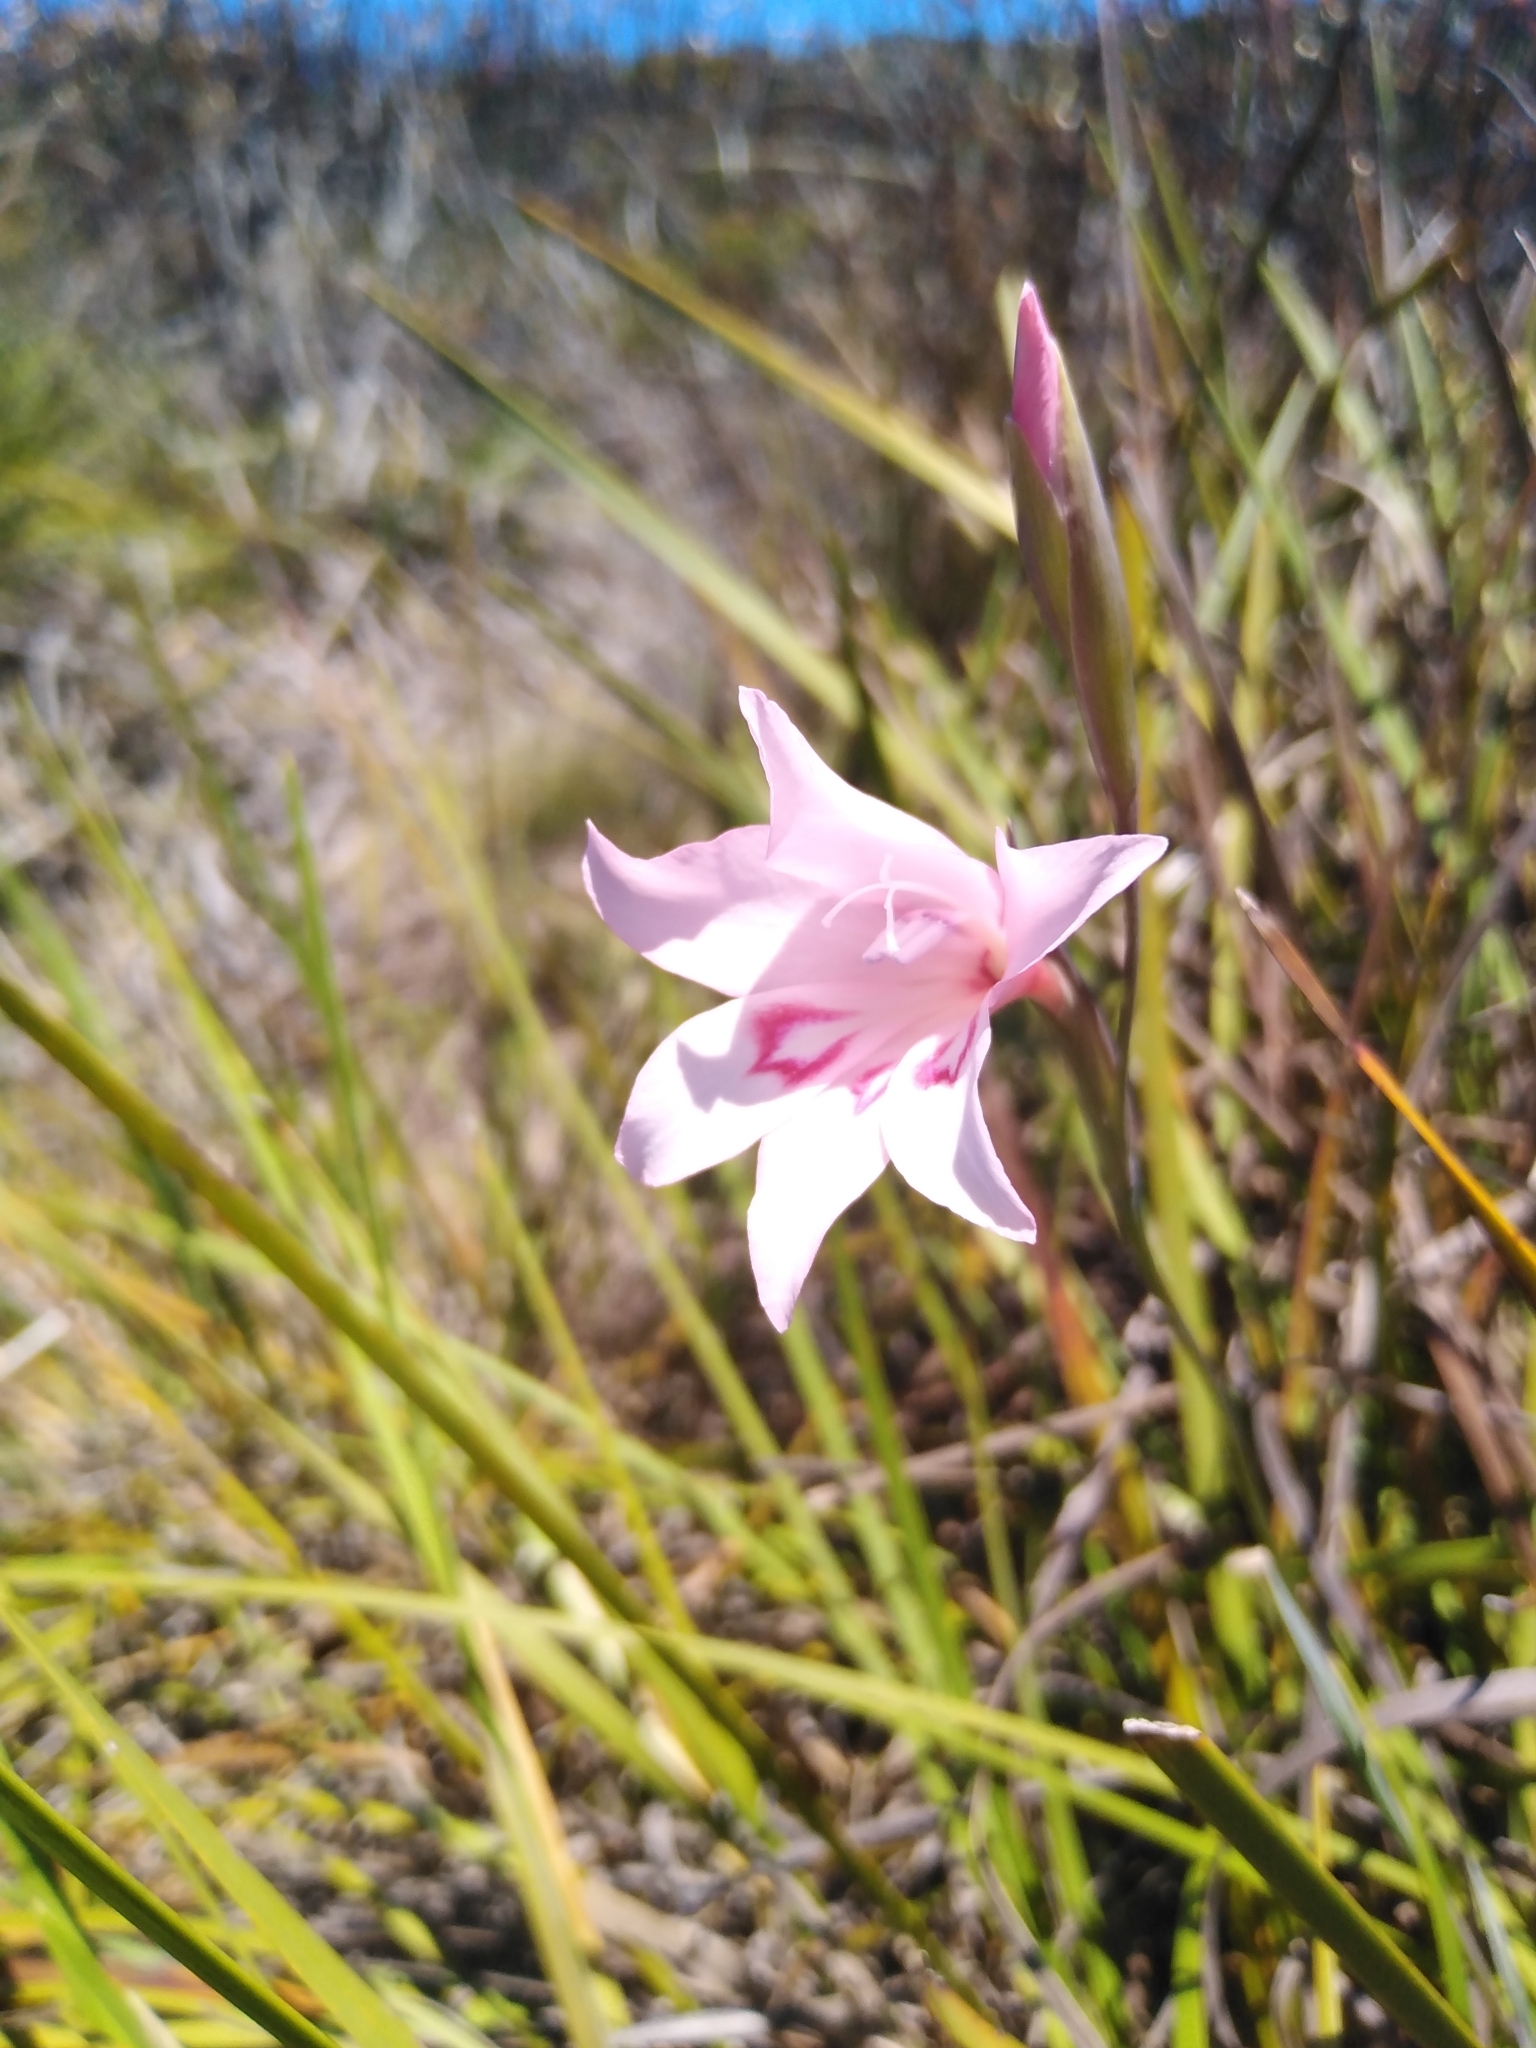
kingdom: Plantae
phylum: Tracheophyta
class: Liliopsida
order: Asparagales
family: Iridaceae
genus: Gladiolus
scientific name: Gladiolus pappei
